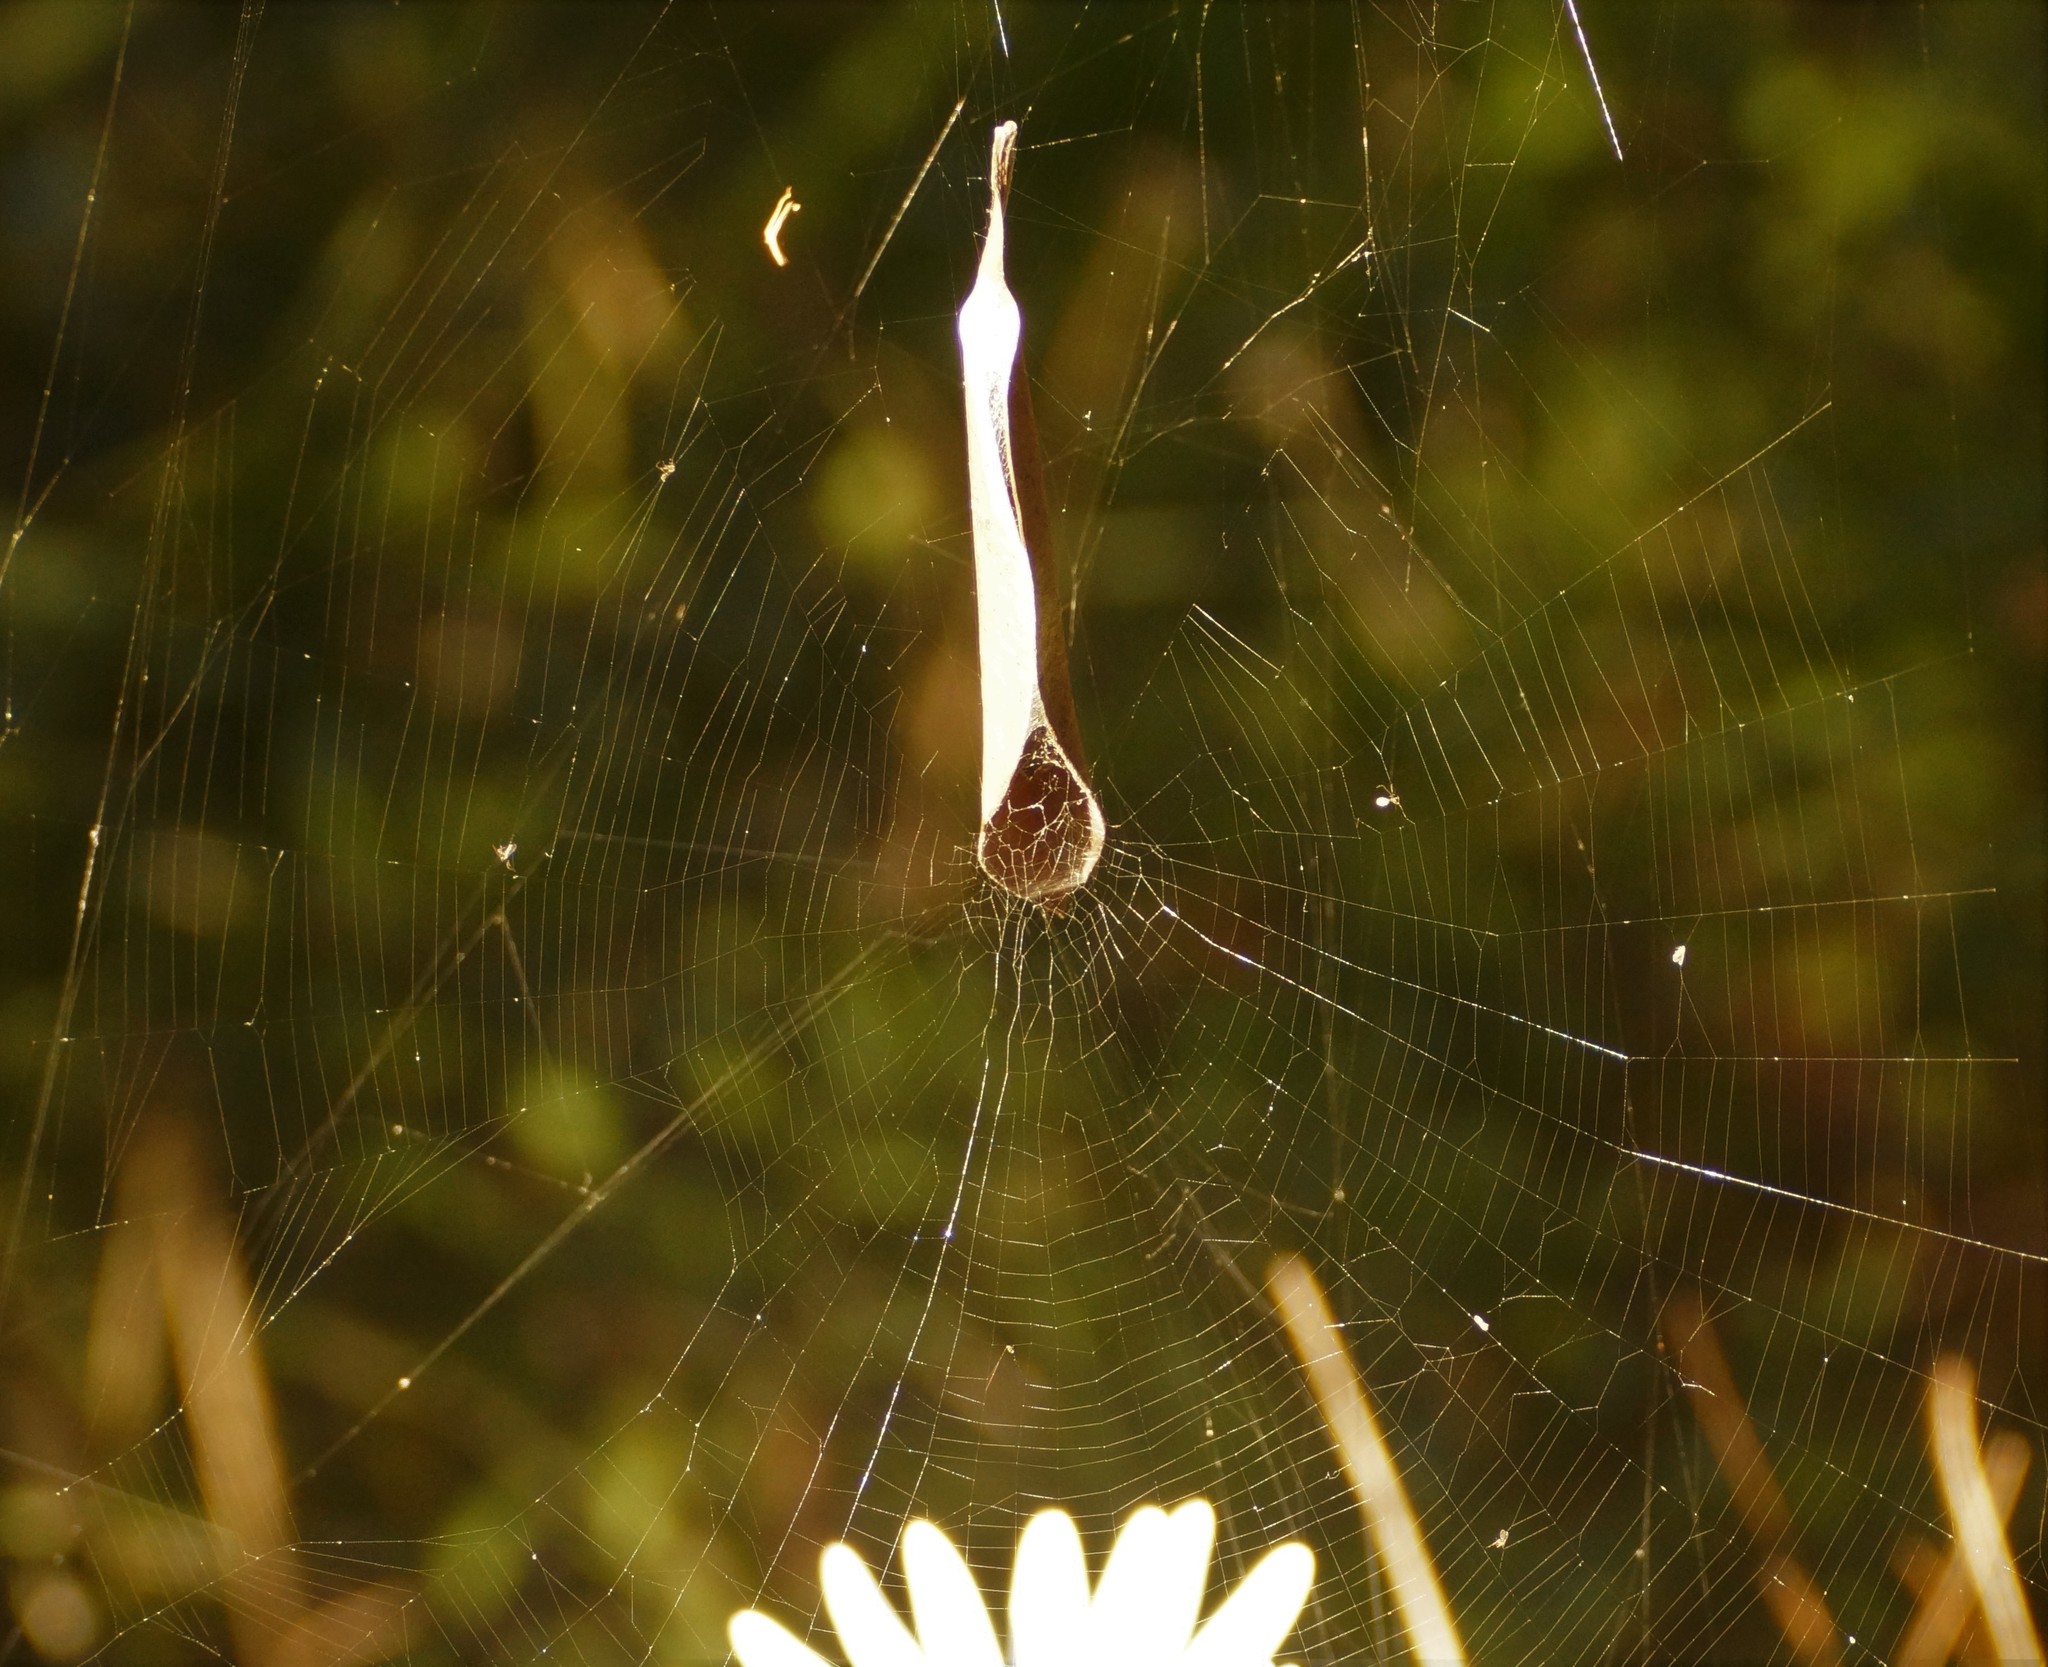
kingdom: Animalia
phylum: Arthropoda
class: Arachnida
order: Araneae
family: Araneidae
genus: Phonognatha
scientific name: Phonognatha graeffei
